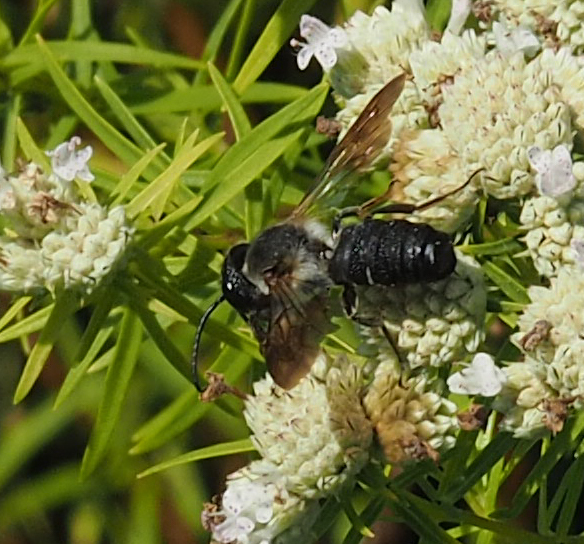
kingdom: Animalia
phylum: Arthropoda
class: Insecta
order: Hymenoptera
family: Megachilidae
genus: Megachile
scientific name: Megachile sculpturalis
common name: Sculptured resin bee
